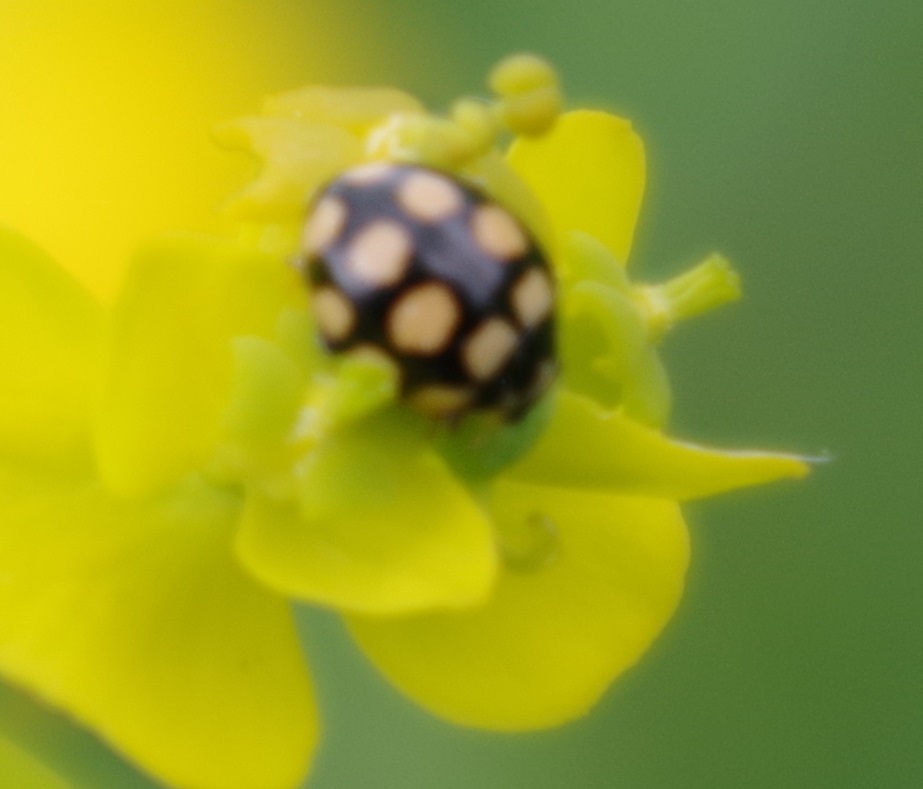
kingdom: Animalia
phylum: Arthropoda
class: Insecta
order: Coleoptera
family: Coccinellidae
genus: Coccinula
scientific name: Coccinula quatuordecimpustulata
